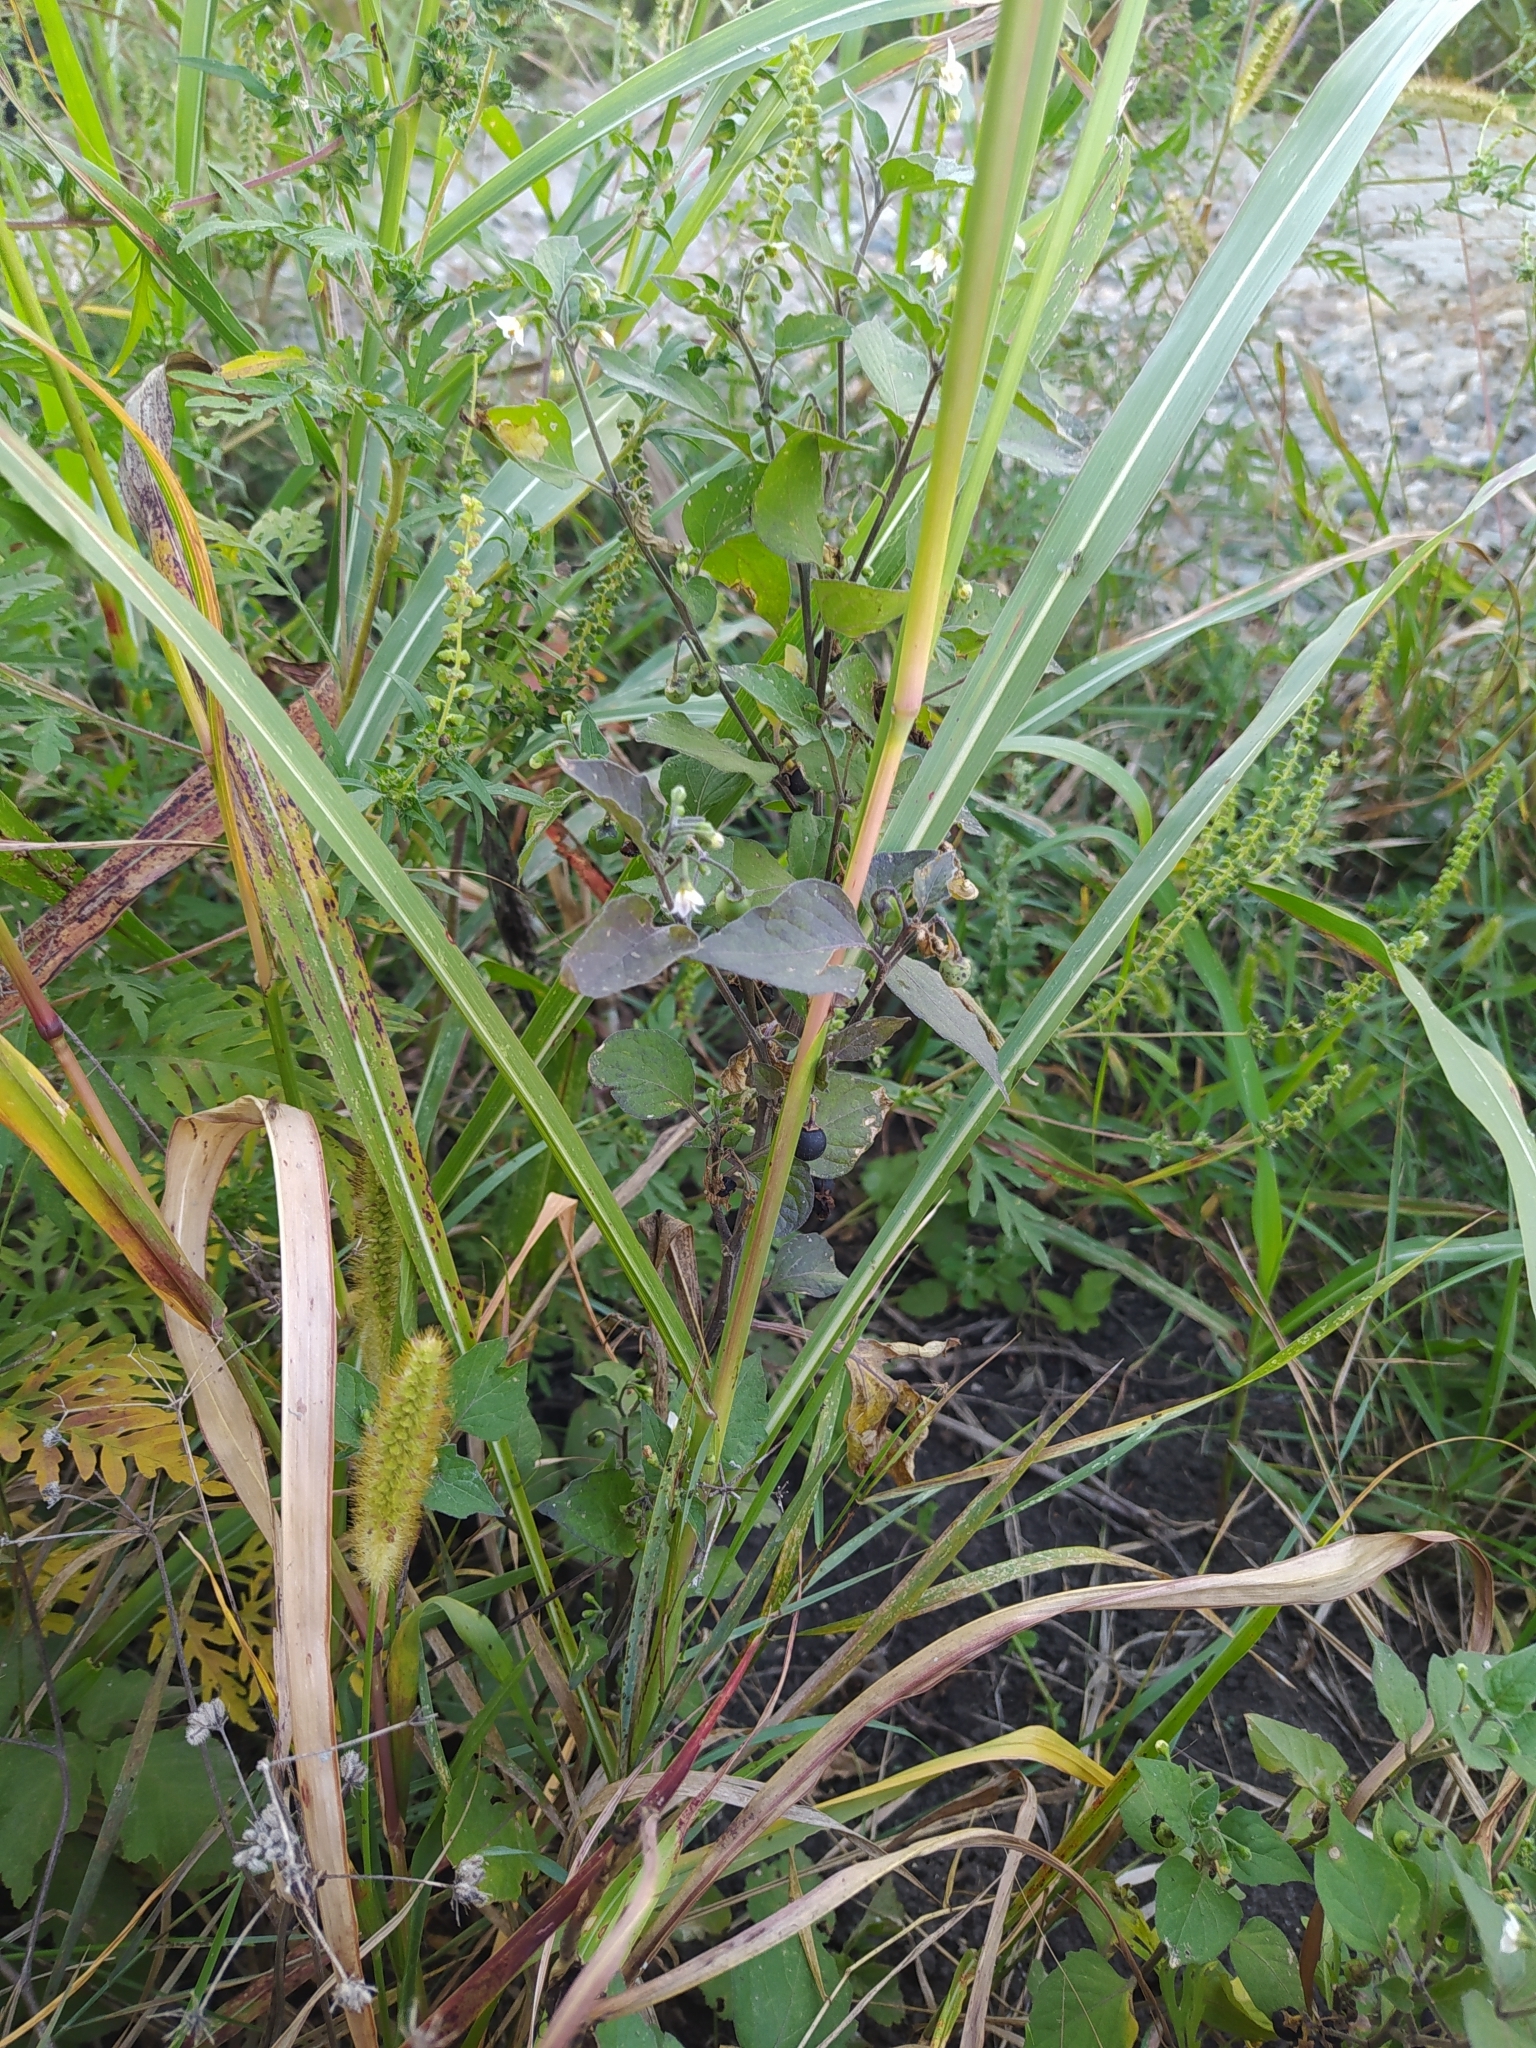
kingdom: Plantae
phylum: Tracheophyta
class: Magnoliopsida
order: Solanales
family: Solanaceae
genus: Solanum
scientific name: Solanum nigrum
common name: Black nightshade
